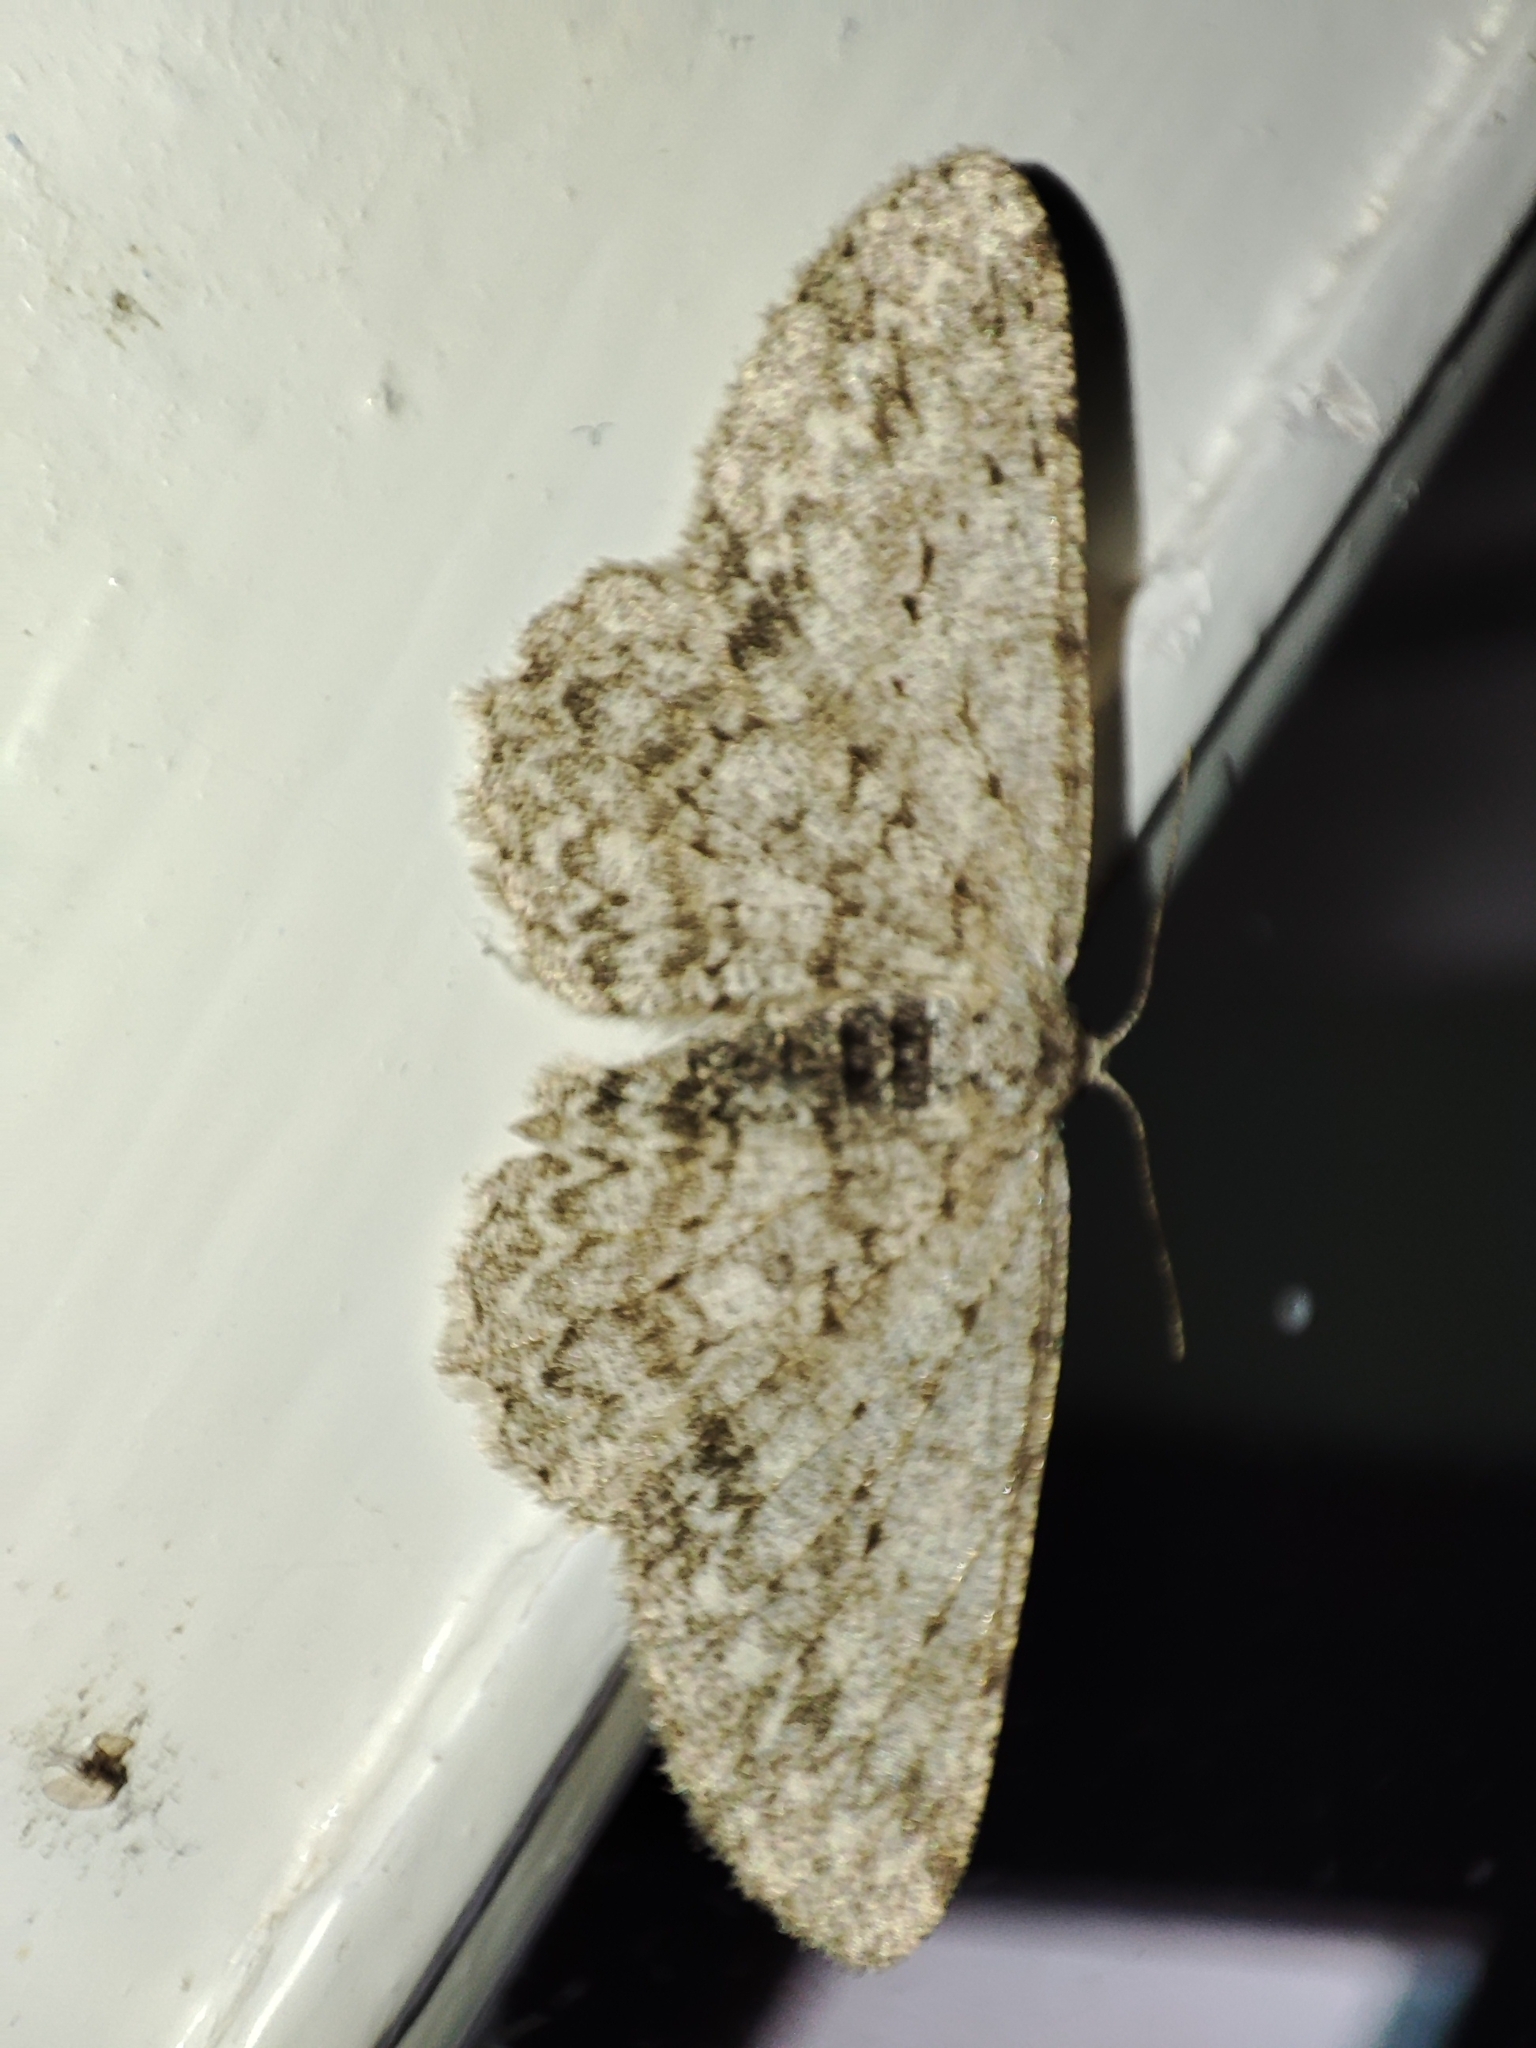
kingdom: Animalia
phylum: Arthropoda
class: Insecta
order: Lepidoptera
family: Geometridae
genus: Hypomecis
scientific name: Hypomecis punctinalis
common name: Pale oak beauty
